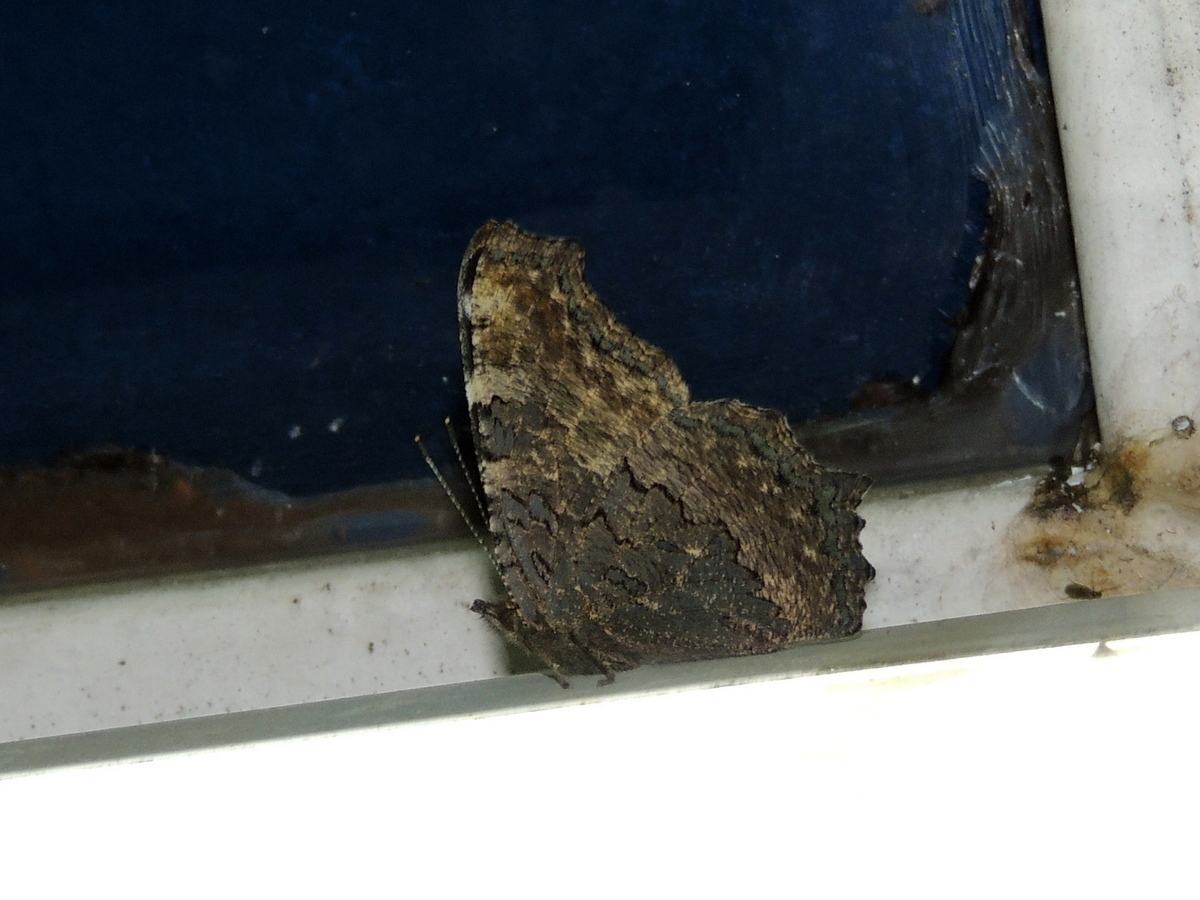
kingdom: Animalia
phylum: Arthropoda
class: Insecta
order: Lepidoptera
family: Nymphalidae
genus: Aglais
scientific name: Aglais caschmirensis
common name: Indian tortoiseshell
